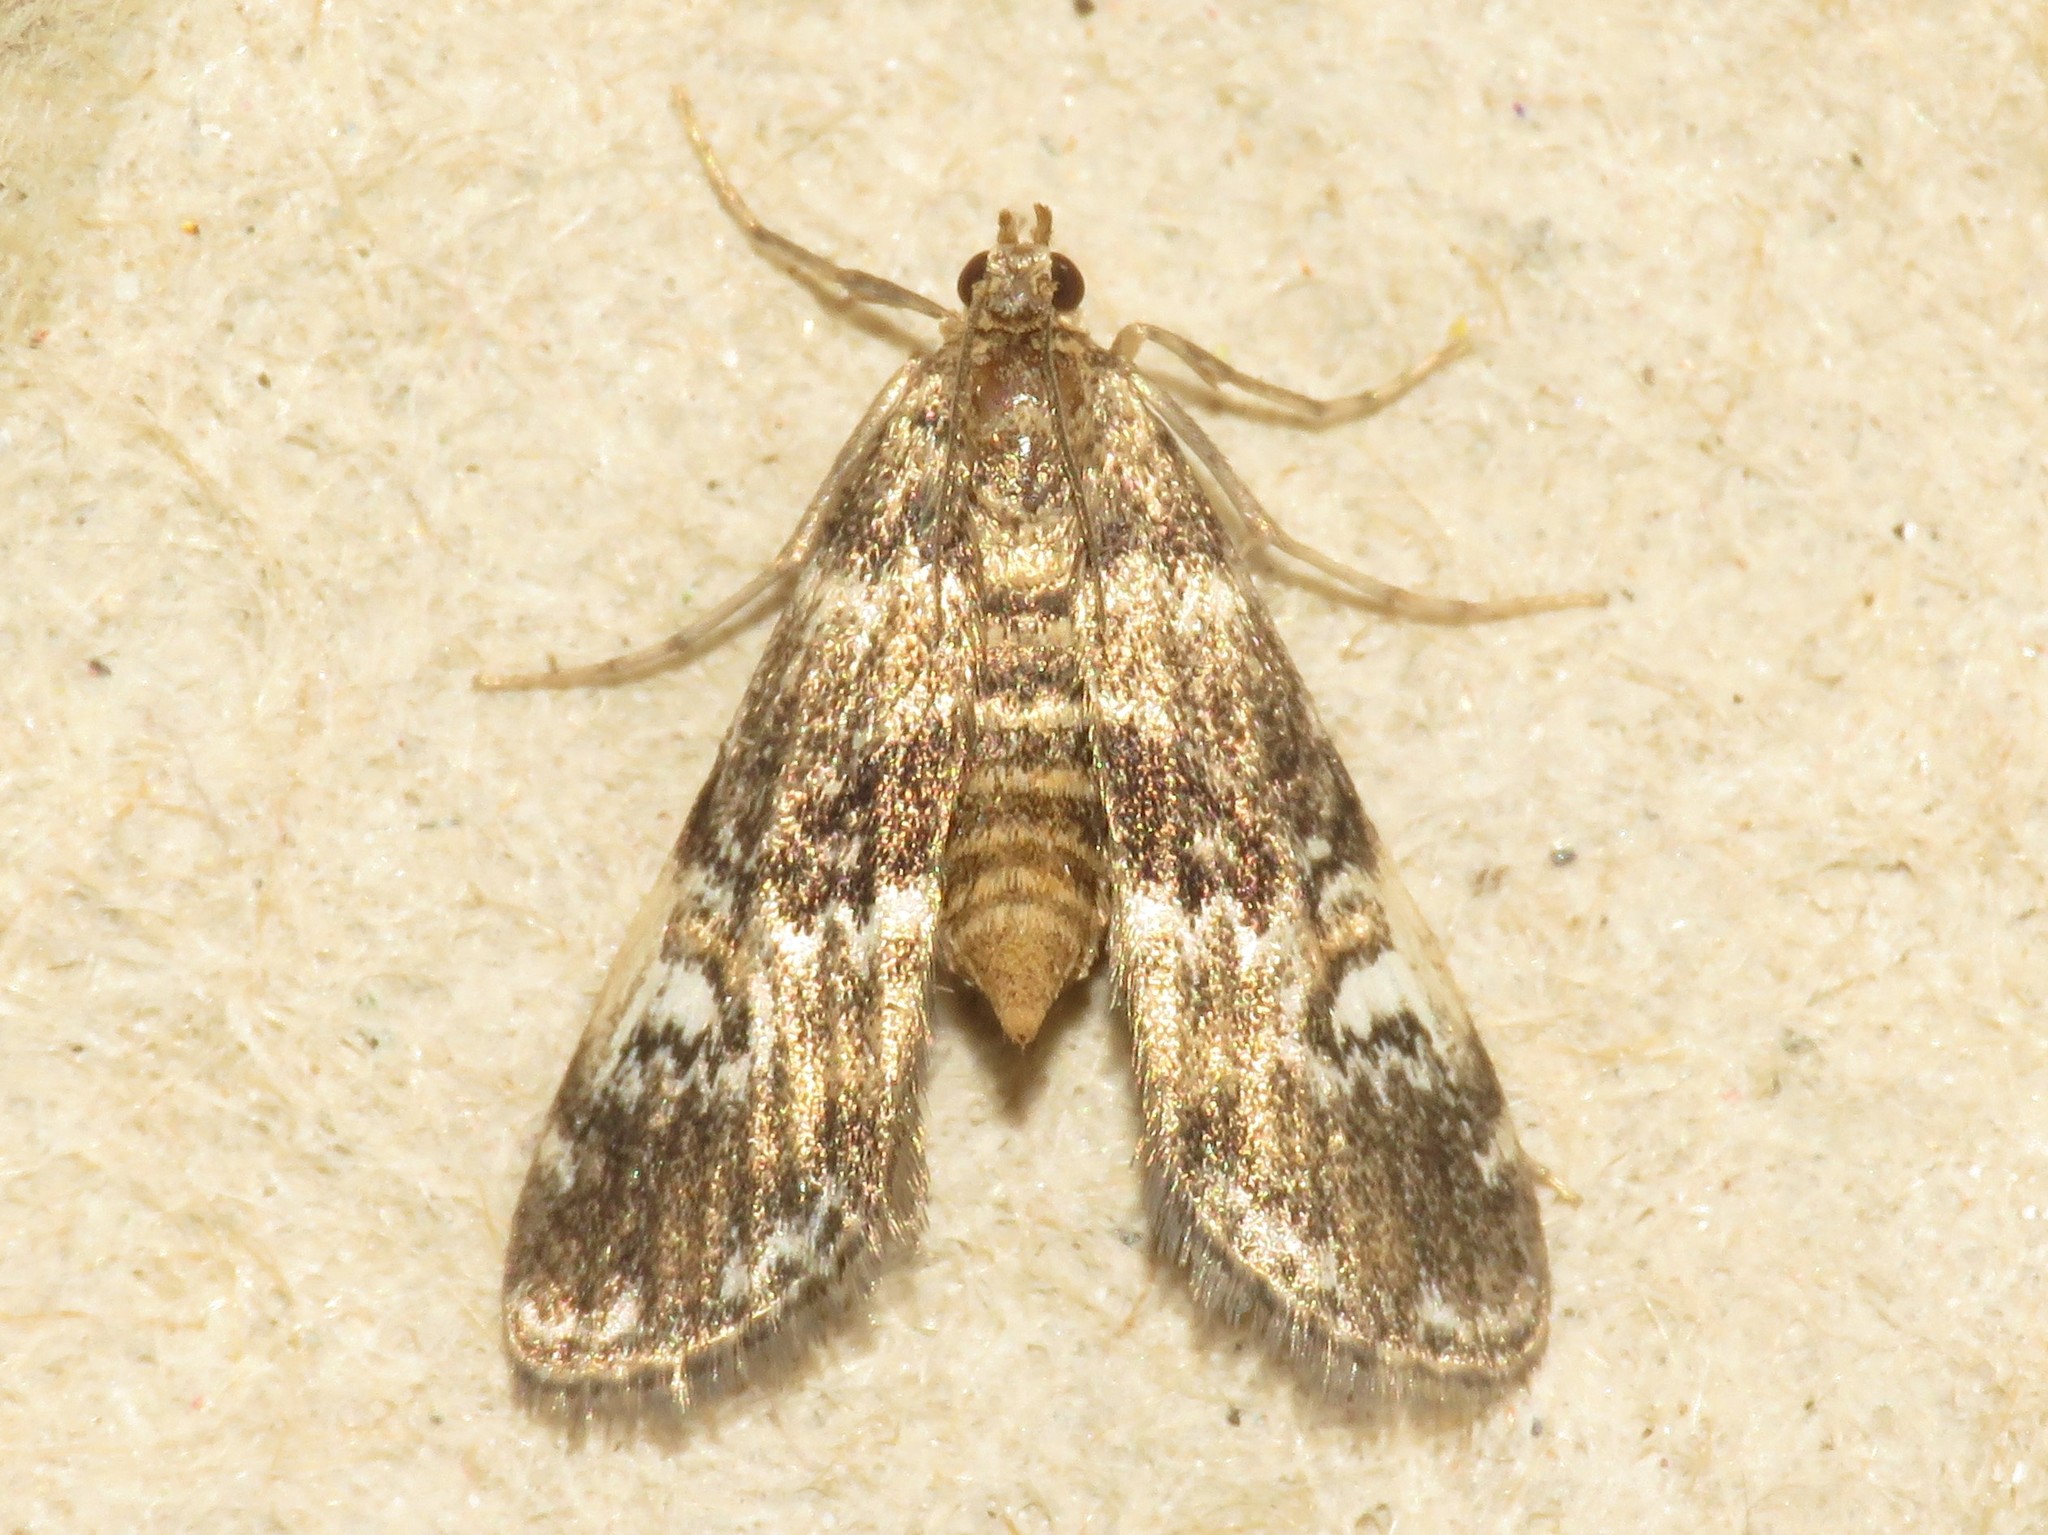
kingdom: Animalia
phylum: Arthropoda
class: Insecta
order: Lepidoptera
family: Crambidae
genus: Elophila
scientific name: Elophila obliteralis
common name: Waterlily leafcutter moth
